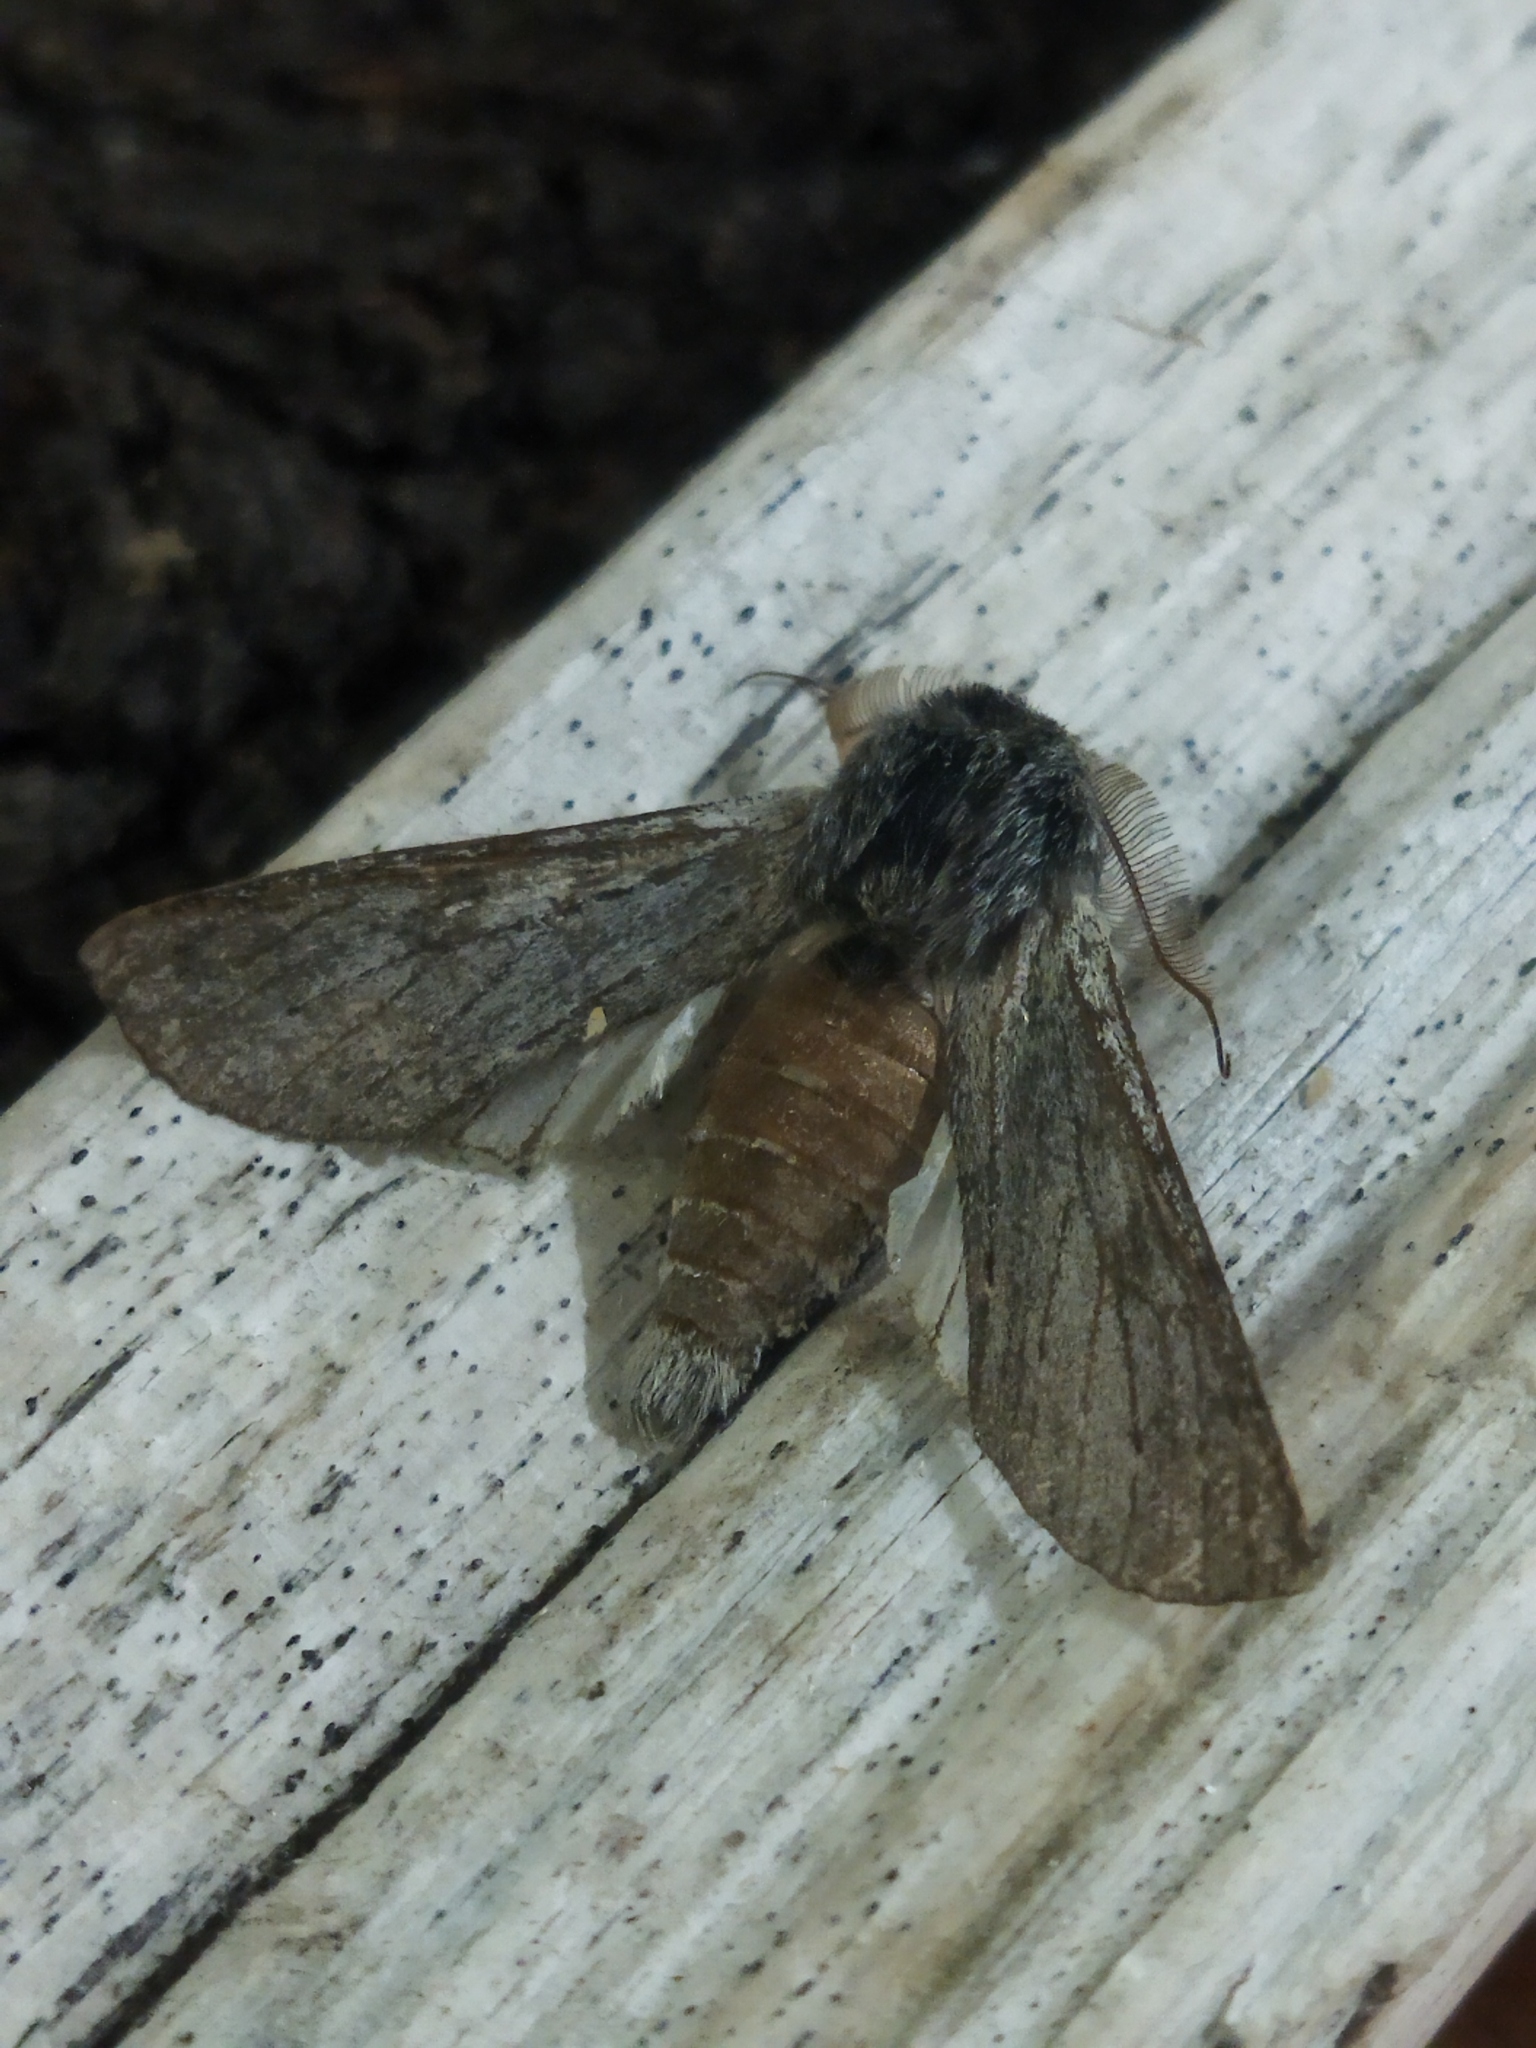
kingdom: Animalia
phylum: Arthropoda
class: Insecta
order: Lepidoptera
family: Notodontidae
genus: Dicranura
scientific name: Dicranura ulmi
